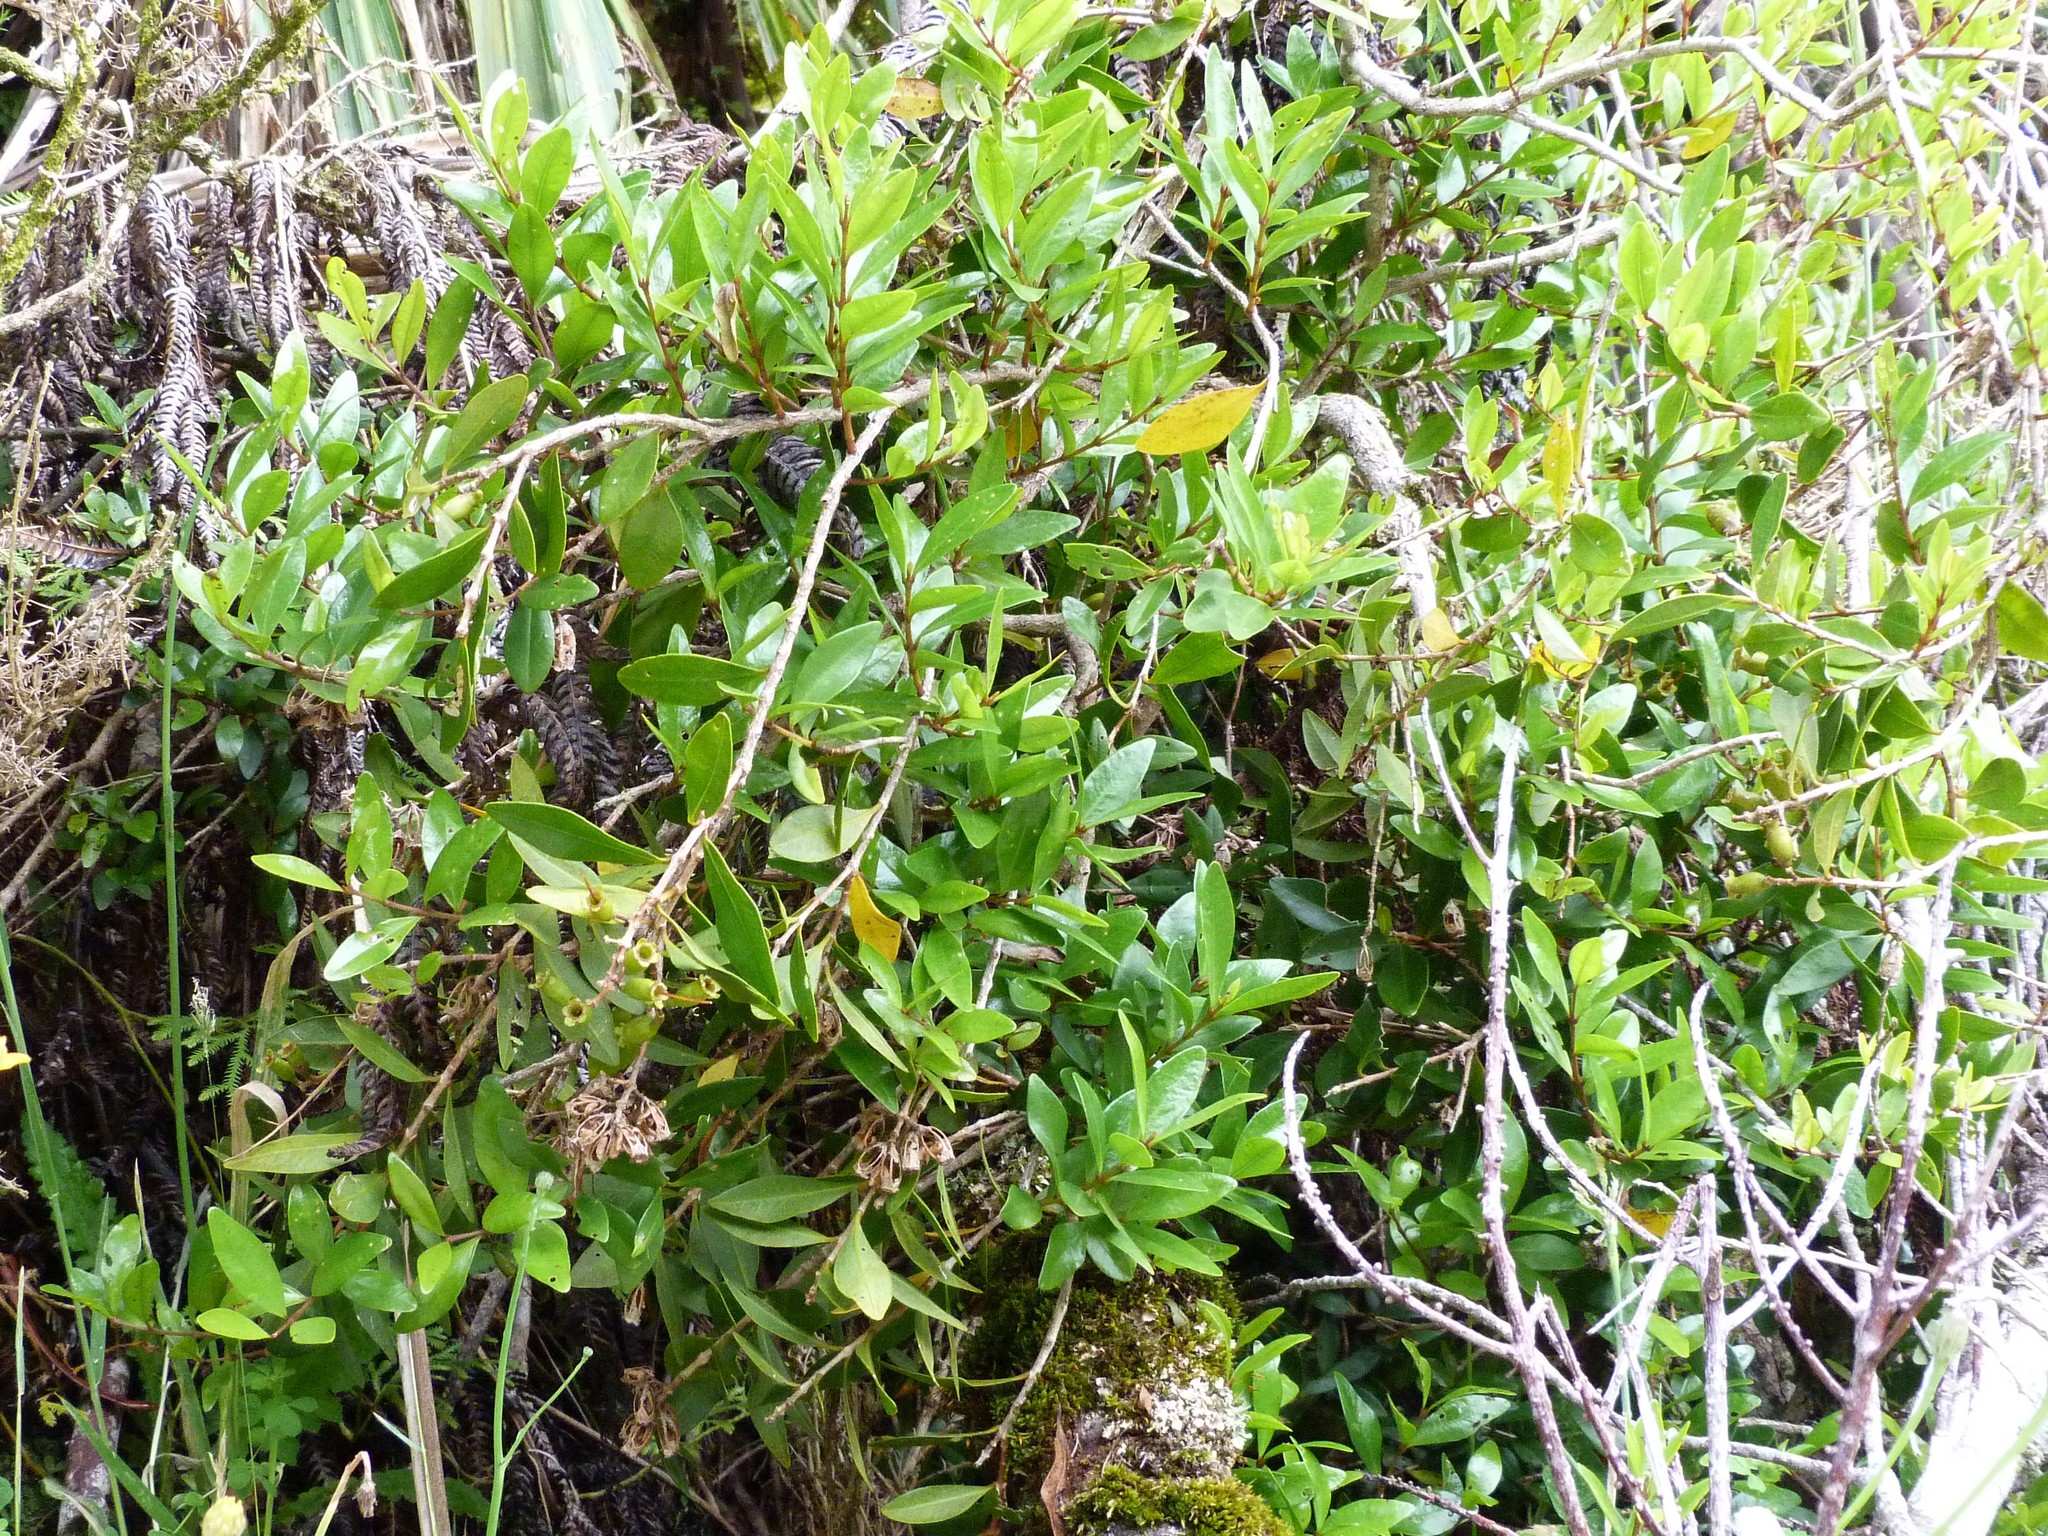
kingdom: Plantae
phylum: Tracheophyta
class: Magnoliopsida
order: Myrtales
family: Myrtaceae
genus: Metrosideros
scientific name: Metrosideros fulgens
